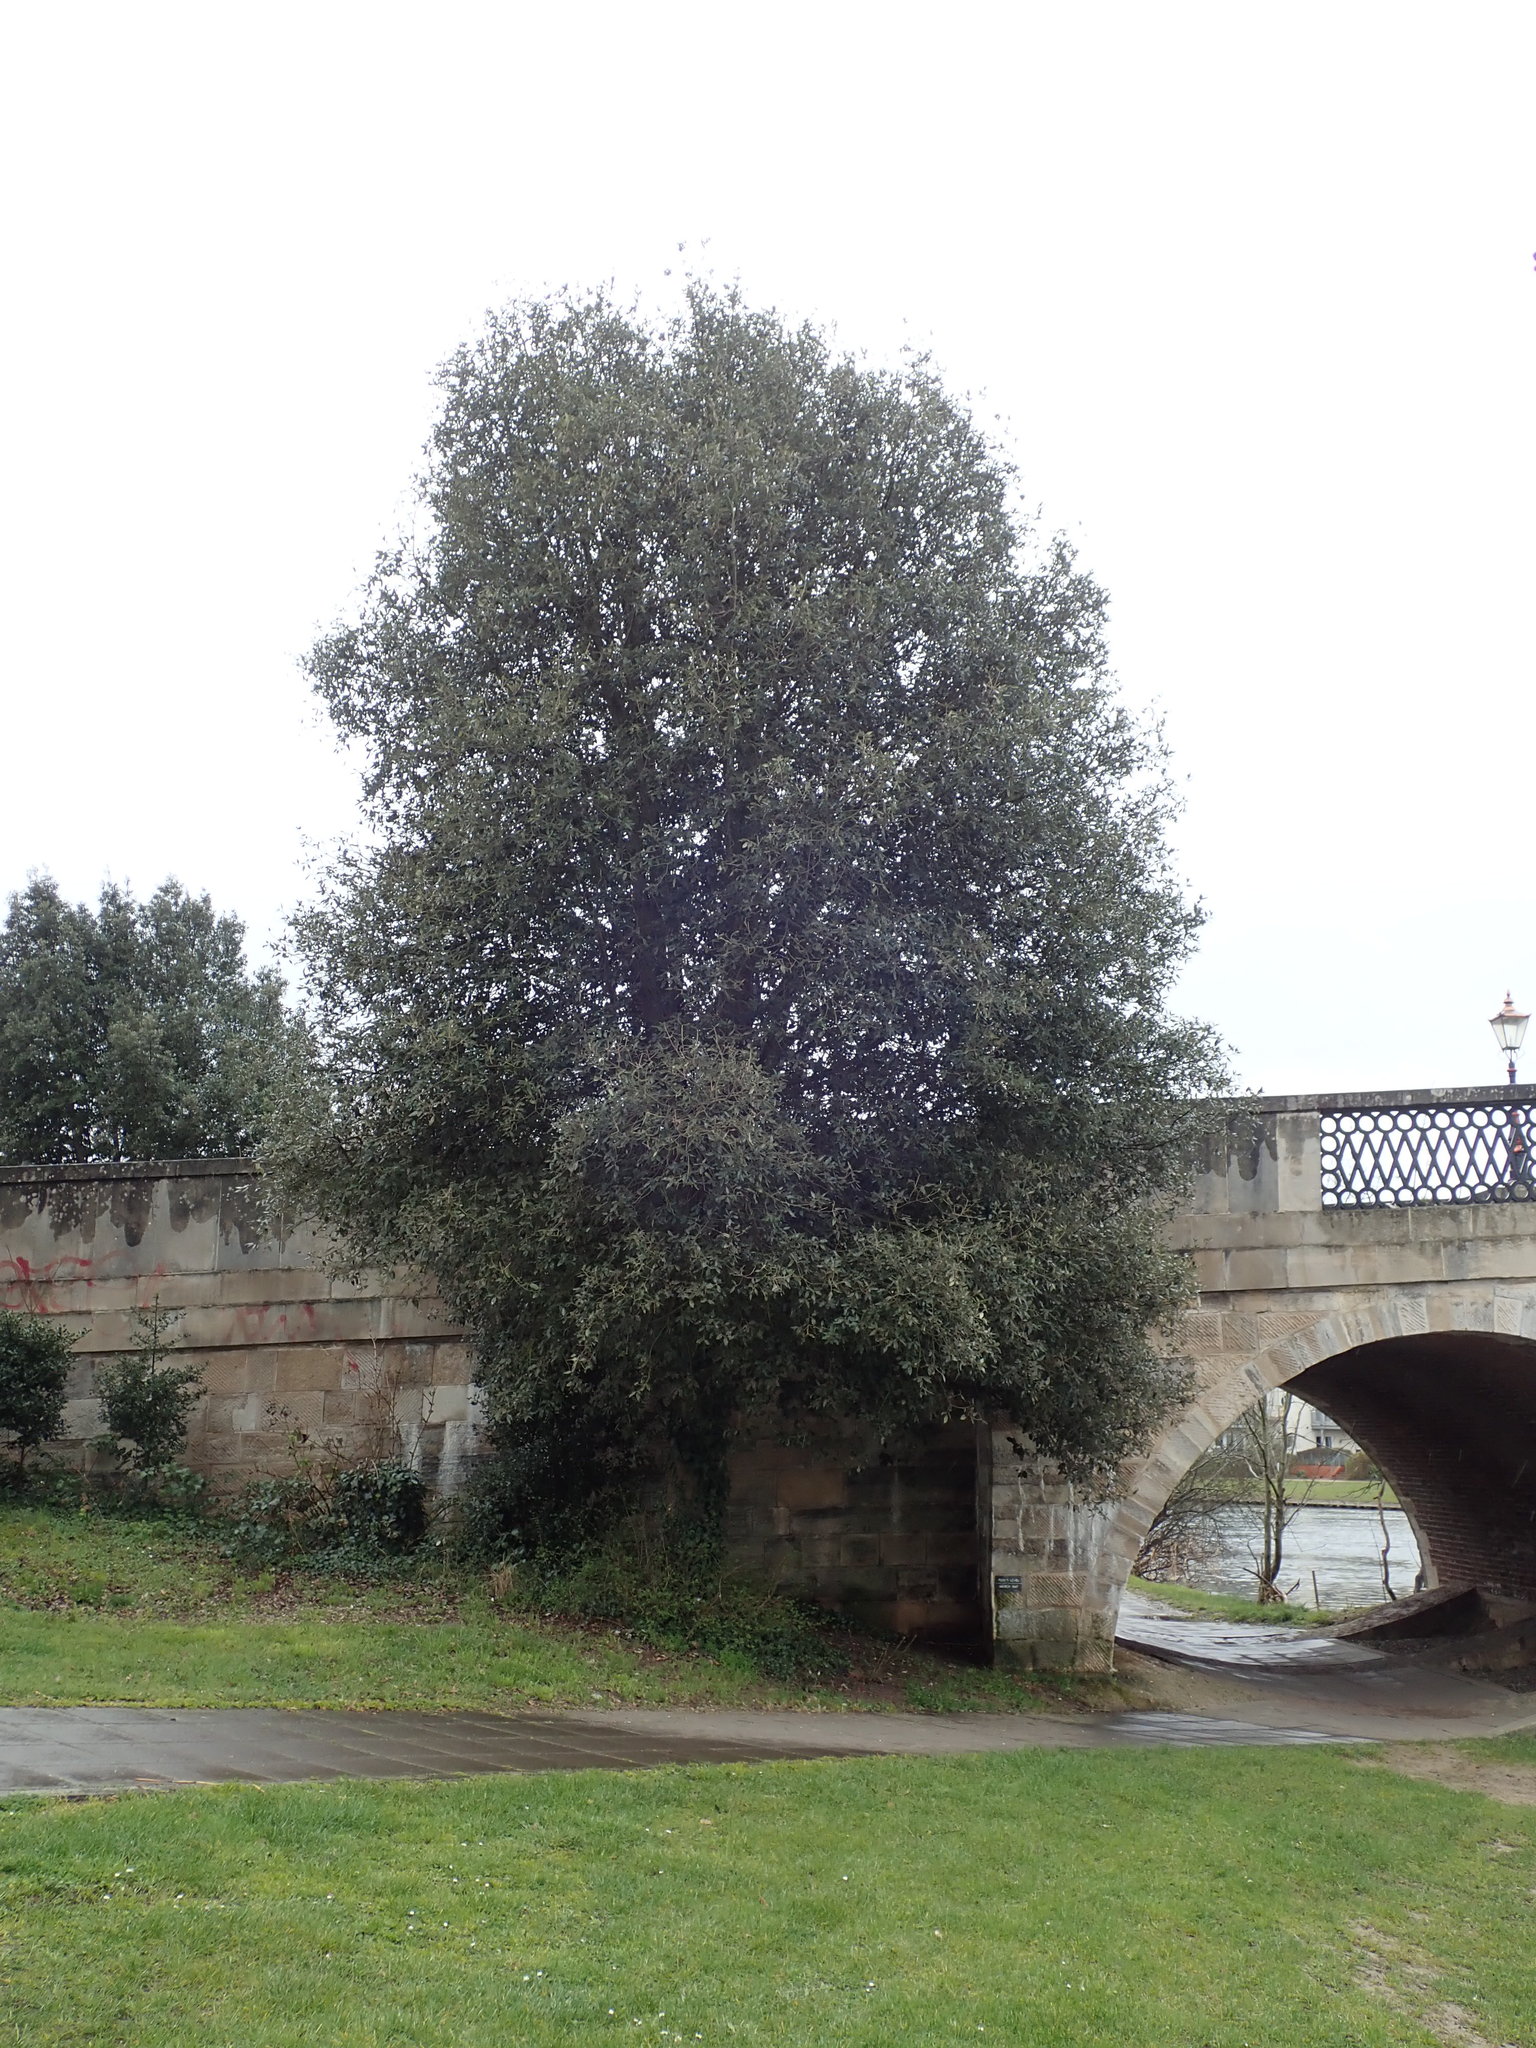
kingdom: Plantae
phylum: Tracheophyta
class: Magnoliopsida
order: Fagales
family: Fagaceae
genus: Quercus
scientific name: Quercus ilex
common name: Evergreen oak
